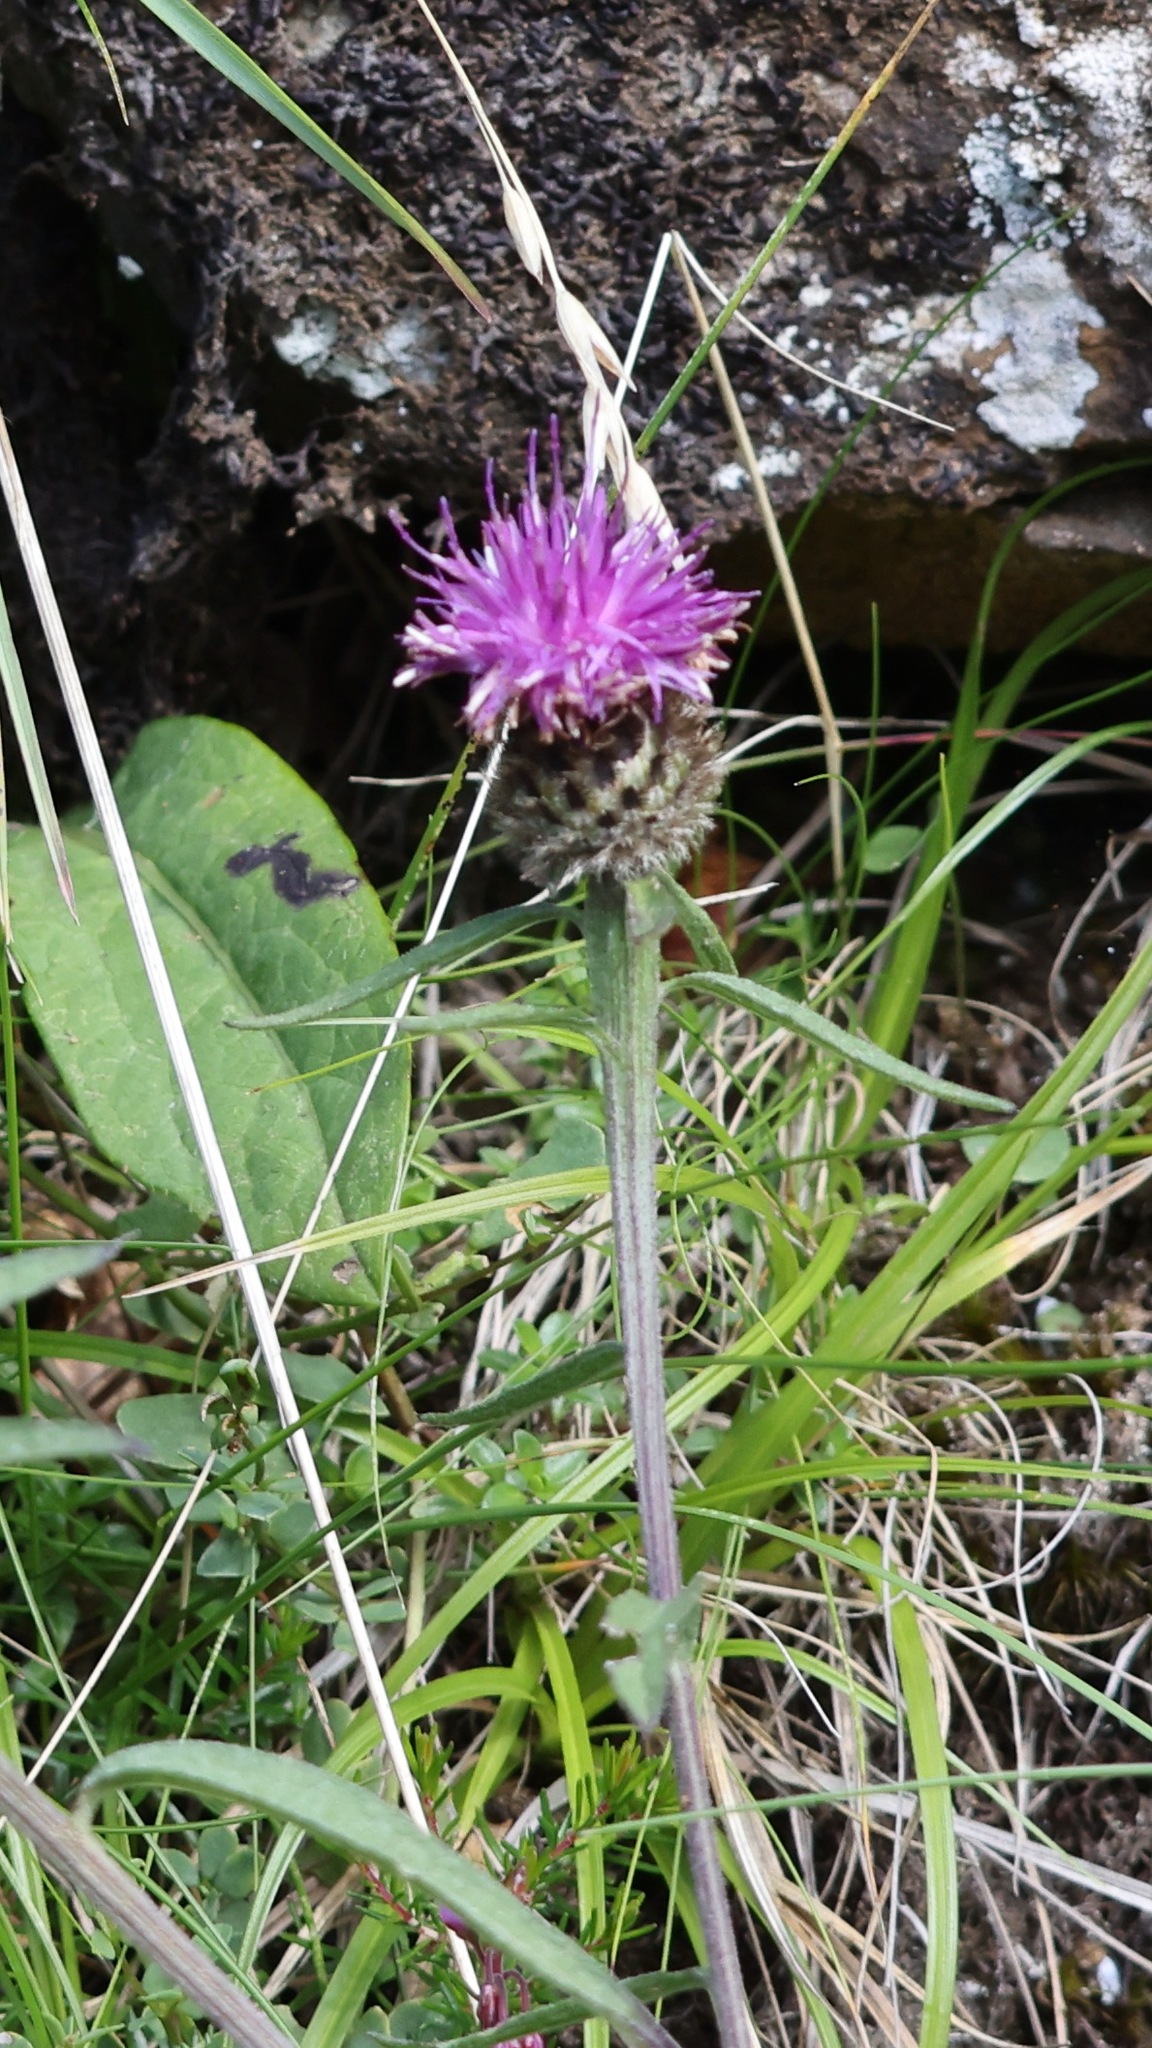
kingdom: Plantae
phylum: Tracheophyta
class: Magnoliopsida
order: Asterales
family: Asteraceae
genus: Centaurea
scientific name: Centaurea nigra
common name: Lesser knapweed
